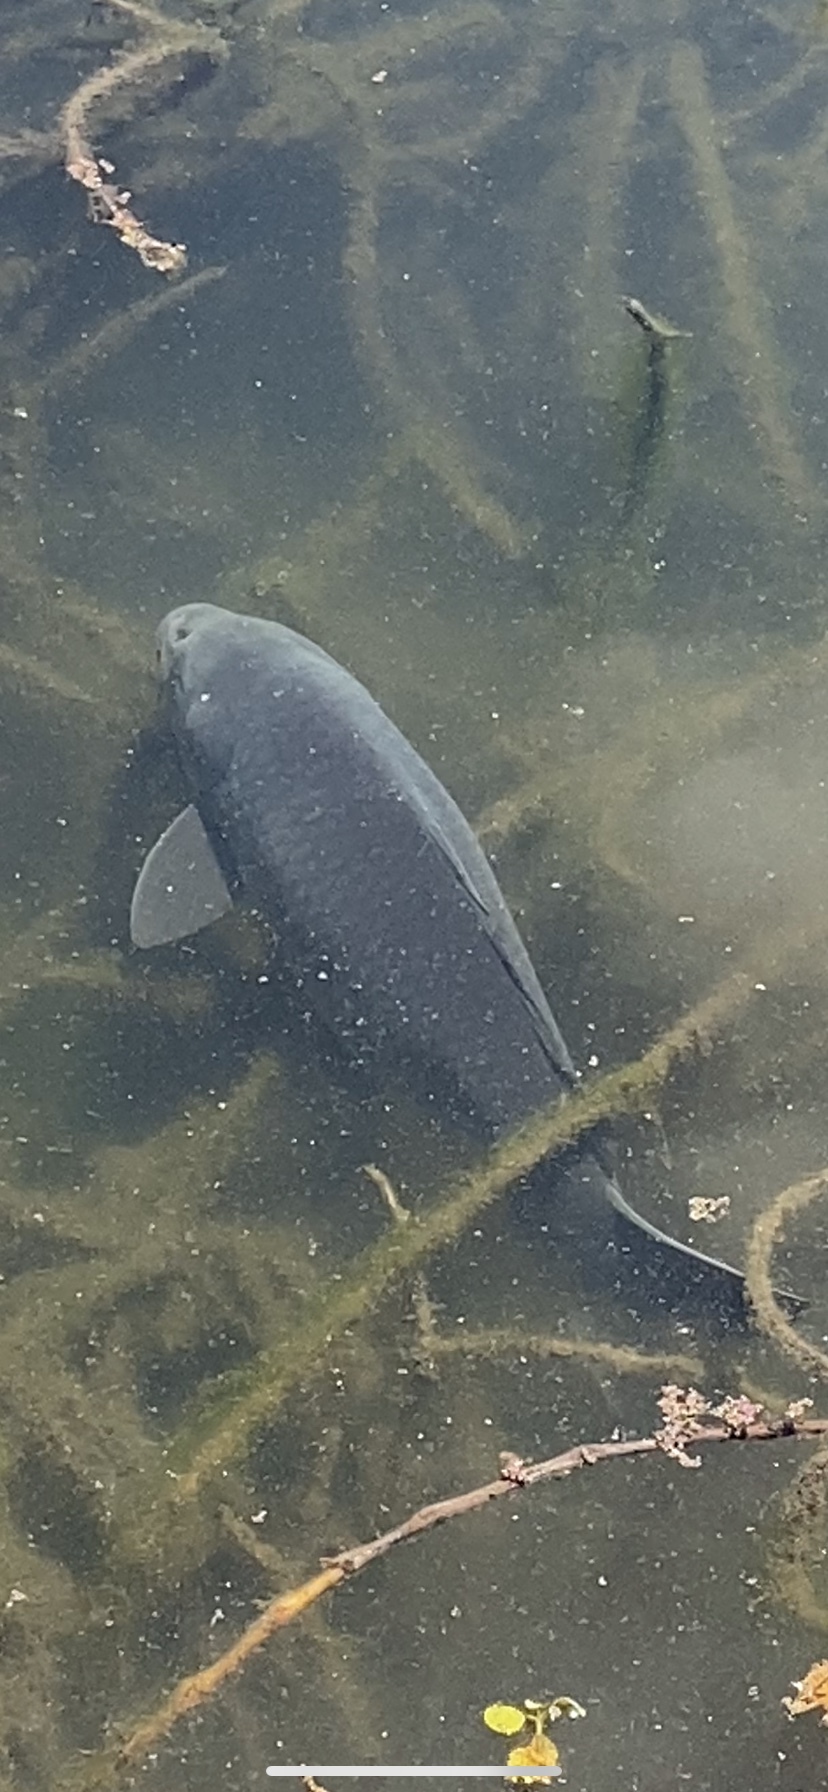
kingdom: Animalia
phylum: Chordata
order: Cypriniformes
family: Cyprinidae
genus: Cyprinus
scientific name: Cyprinus carpio
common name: Common carp
